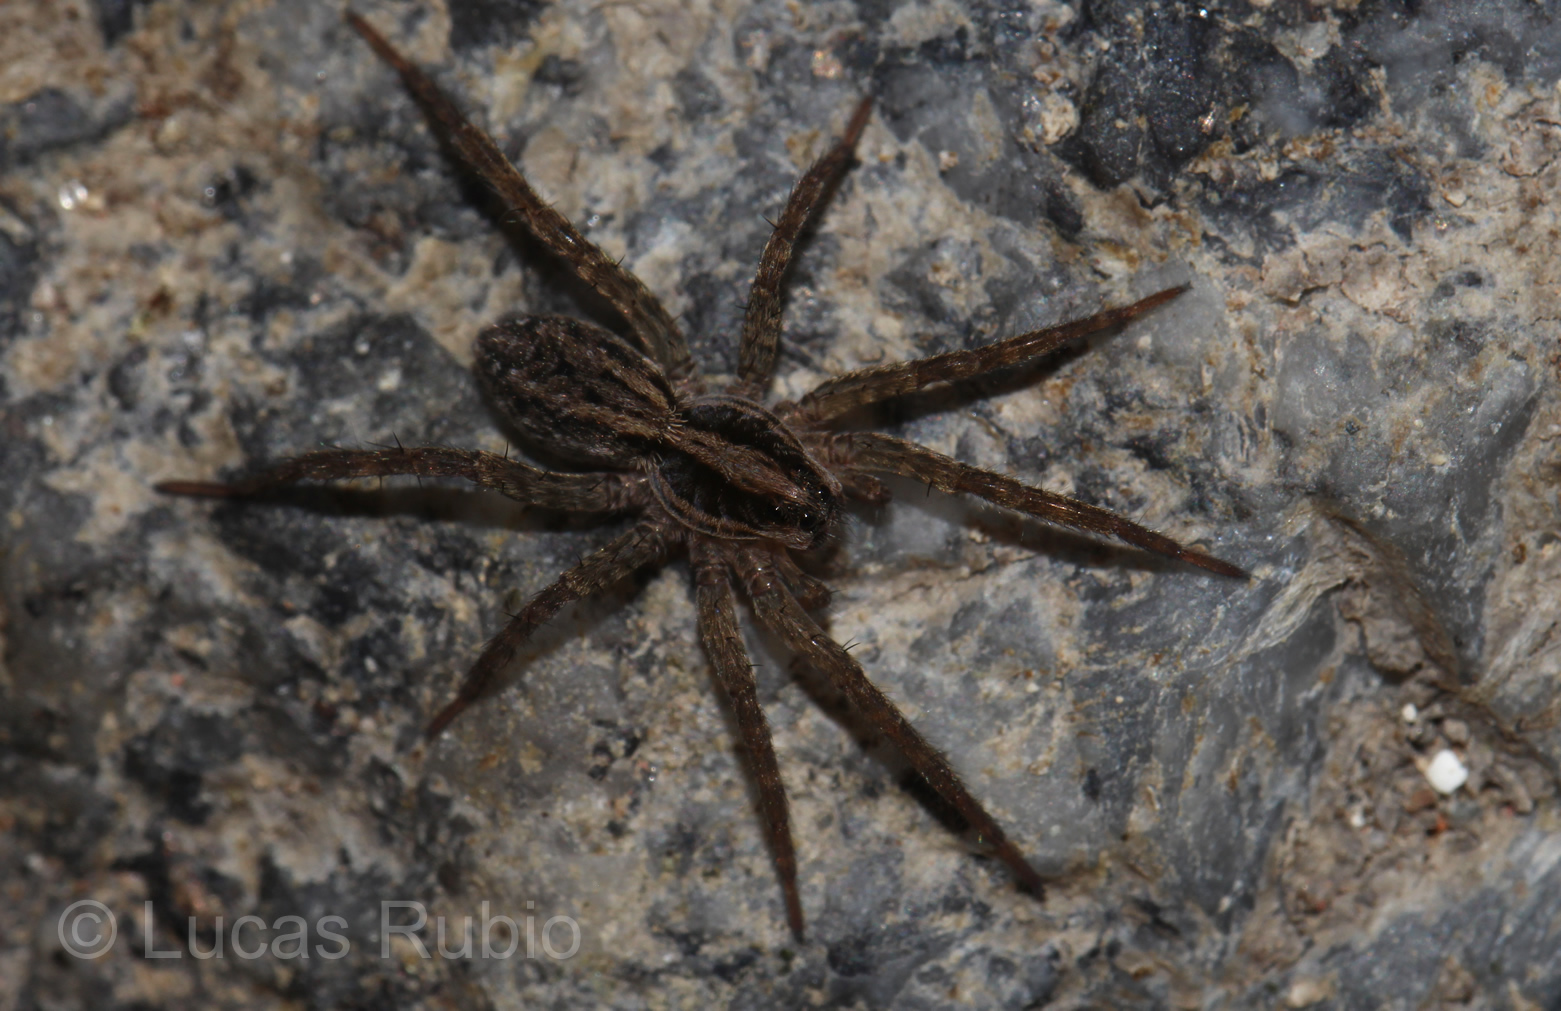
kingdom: Animalia
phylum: Arthropoda
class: Arachnida
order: Araneae
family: Lycosidae
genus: Alopecosa
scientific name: Alopecosa moesta
